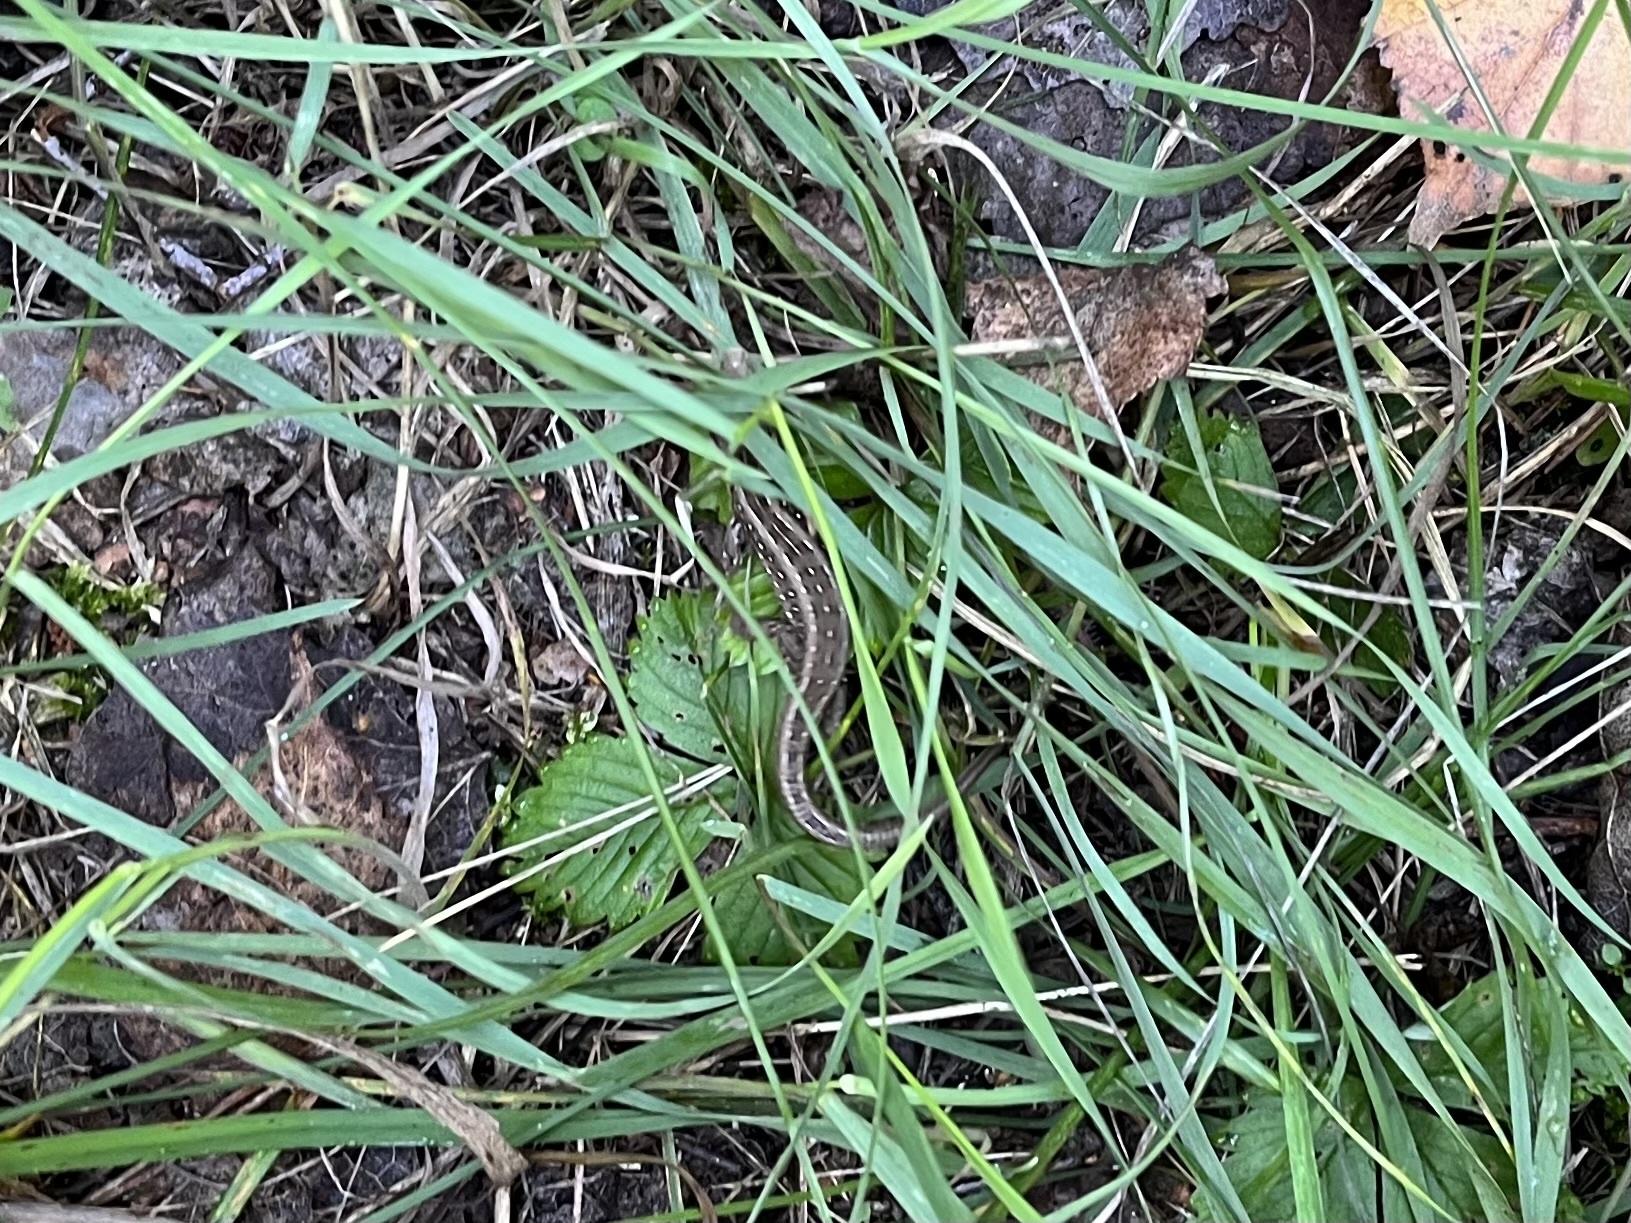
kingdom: Animalia
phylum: Chordata
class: Squamata
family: Lacertidae
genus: Lacerta
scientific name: Lacerta agilis
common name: Sand lizard
